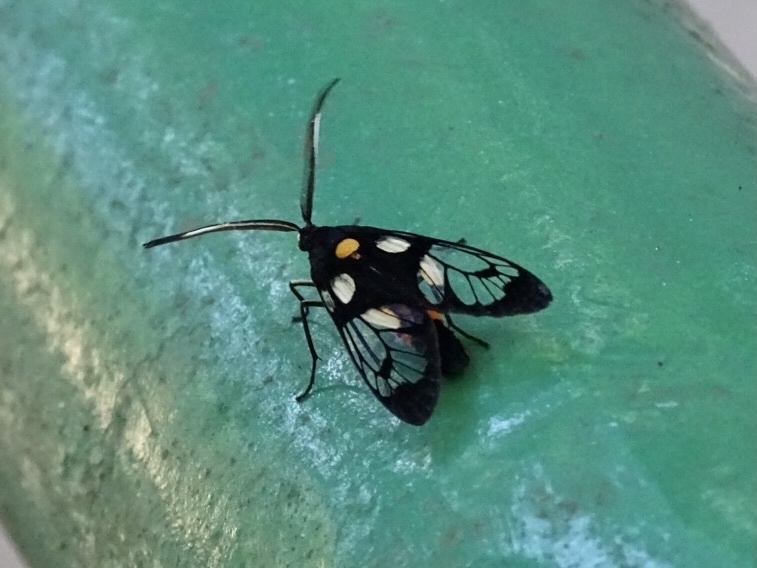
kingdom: Animalia
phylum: Arthropoda
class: Insecta
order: Lepidoptera
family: Zygaenidae
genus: Trypanophora
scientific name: Trypanophora semihyalina
